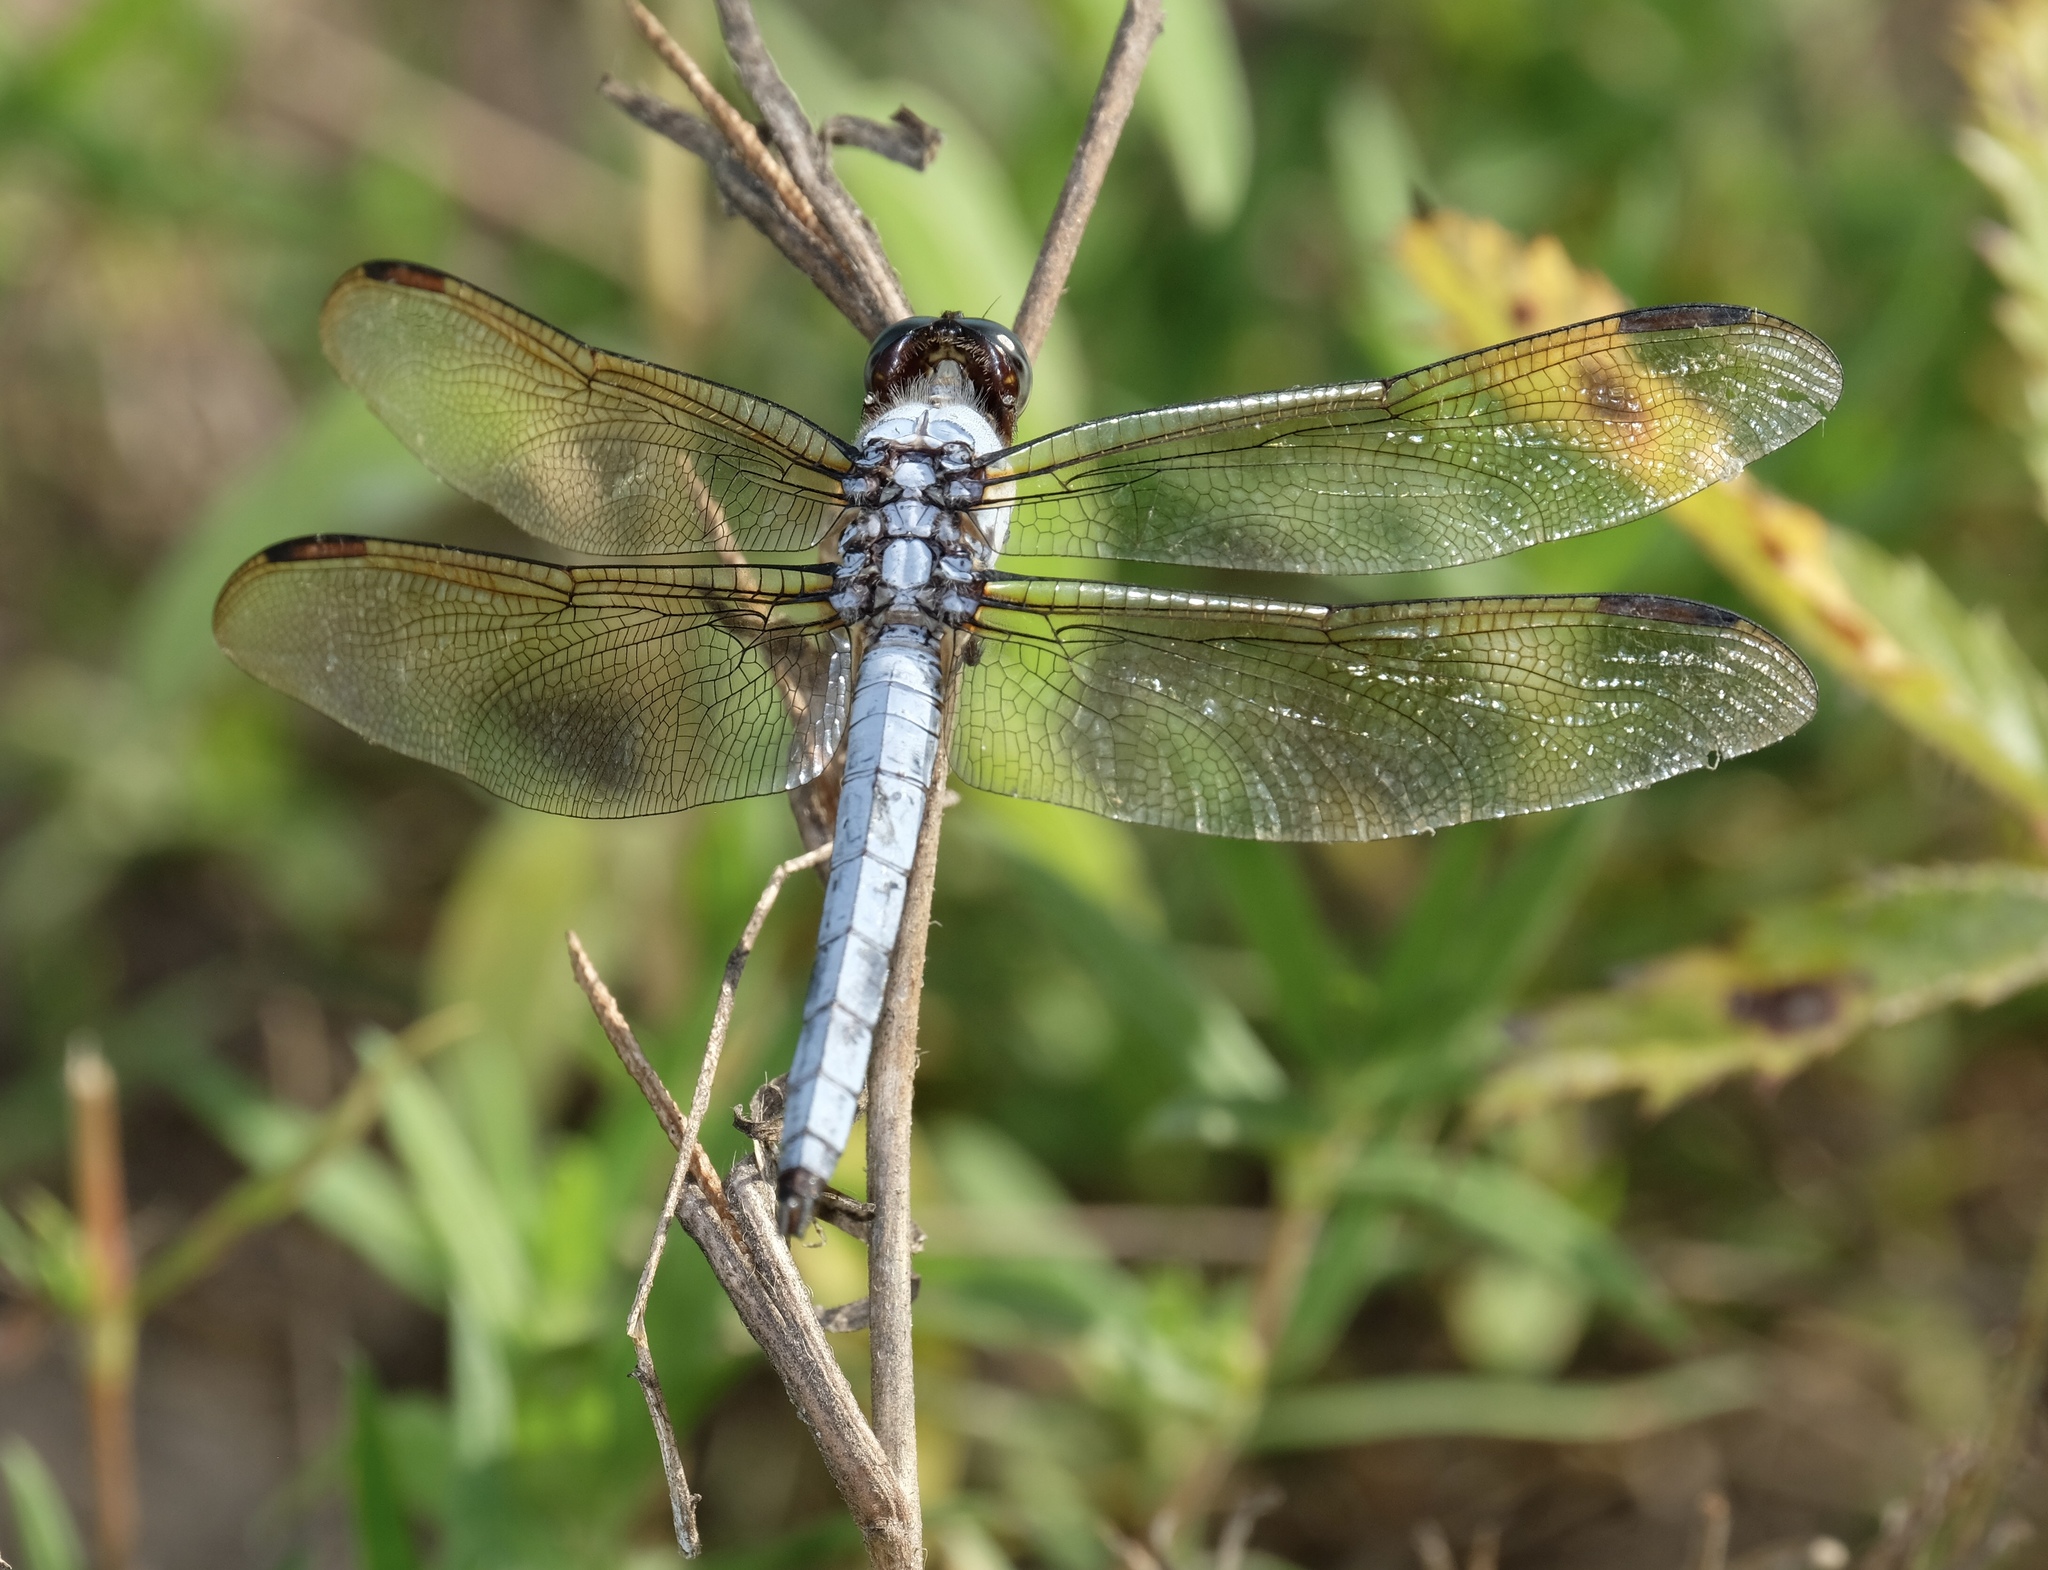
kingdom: Animalia
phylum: Arthropoda
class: Insecta
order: Odonata
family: Libellulidae
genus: Libellula
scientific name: Libellula flavida
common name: Yellow-sided skimmer
